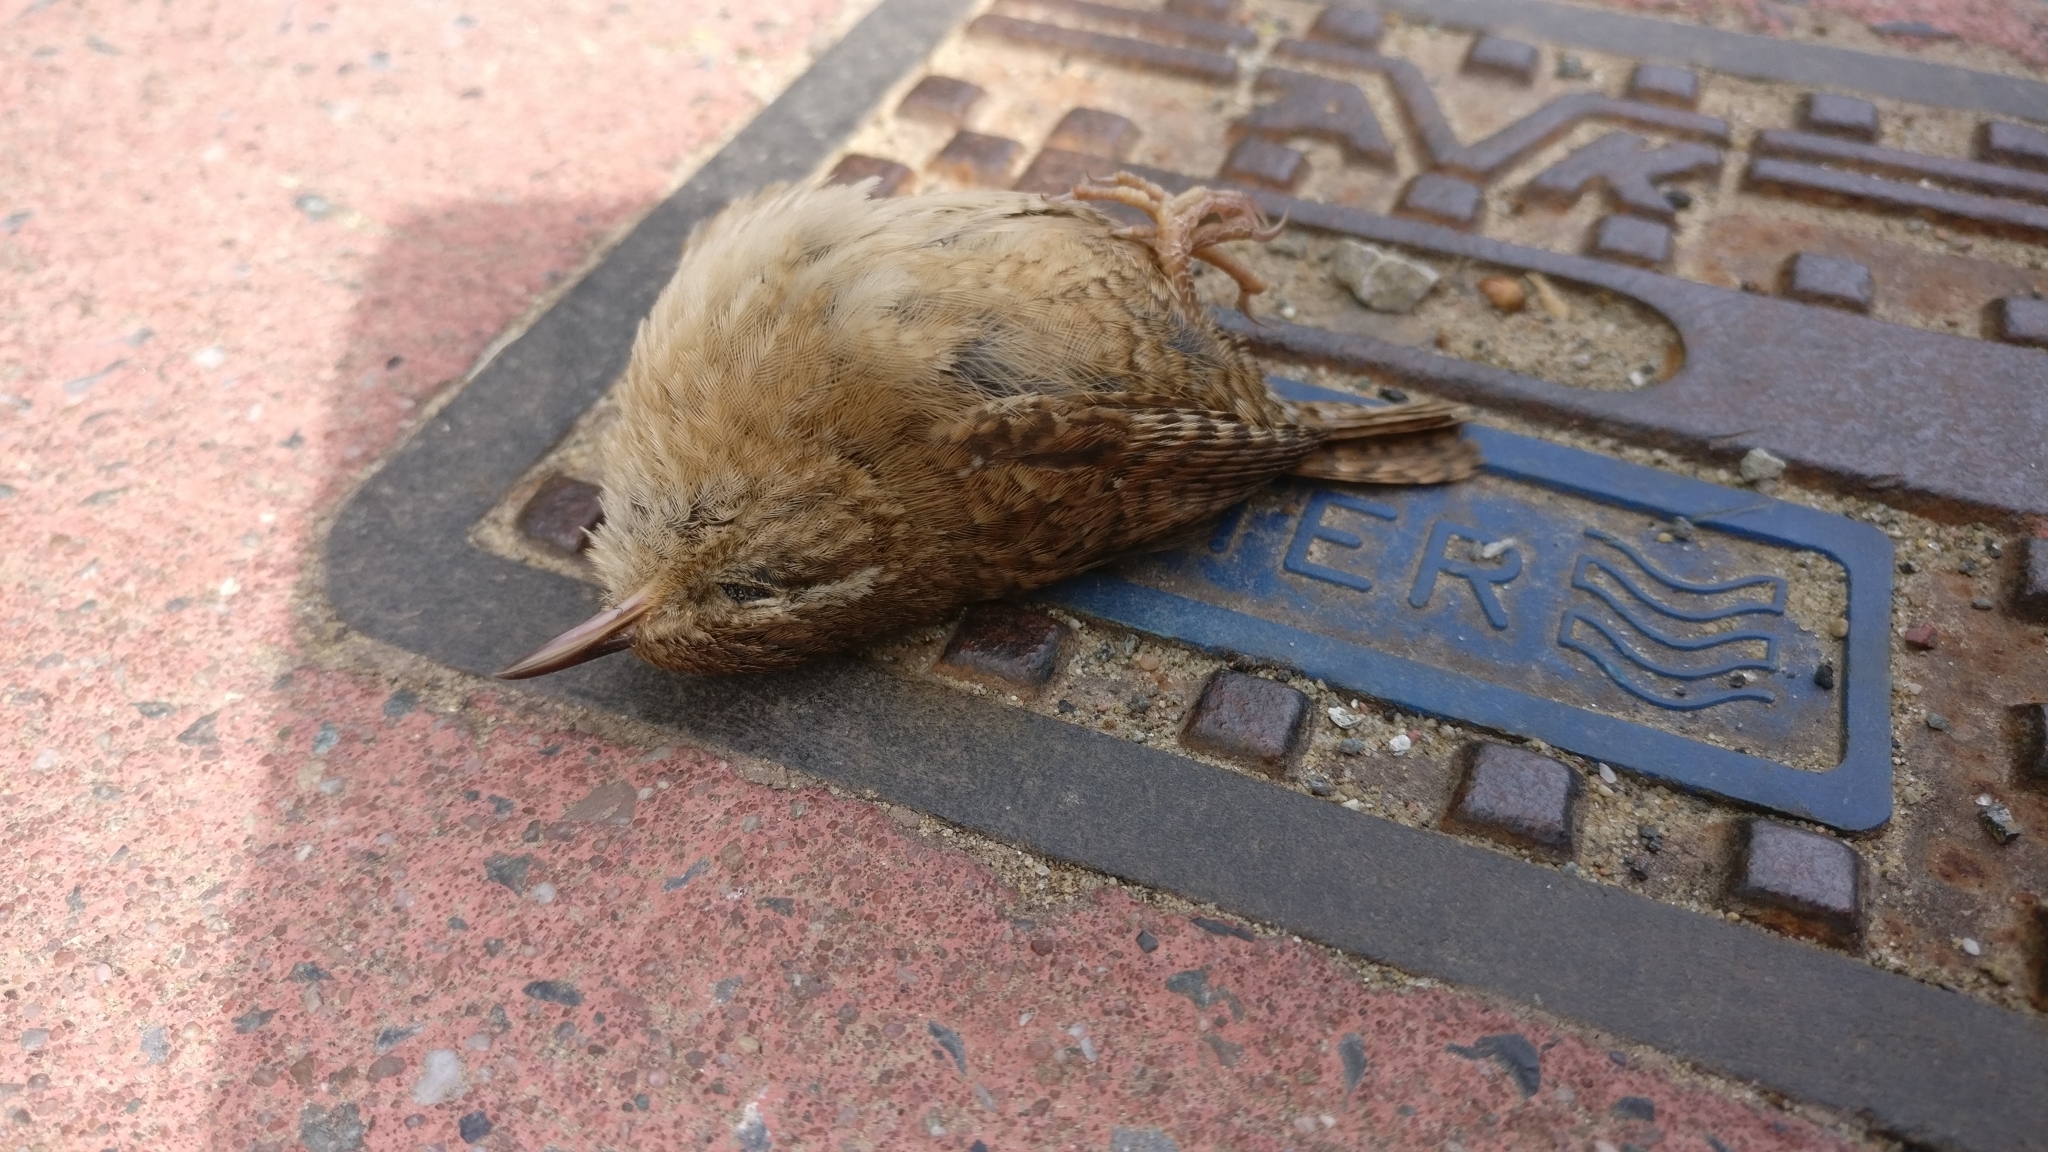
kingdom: Animalia
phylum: Chordata
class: Aves
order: Passeriformes
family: Troglodytidae
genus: Troglodytes
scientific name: Troglodytes troglodytes
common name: Eurasian wren
